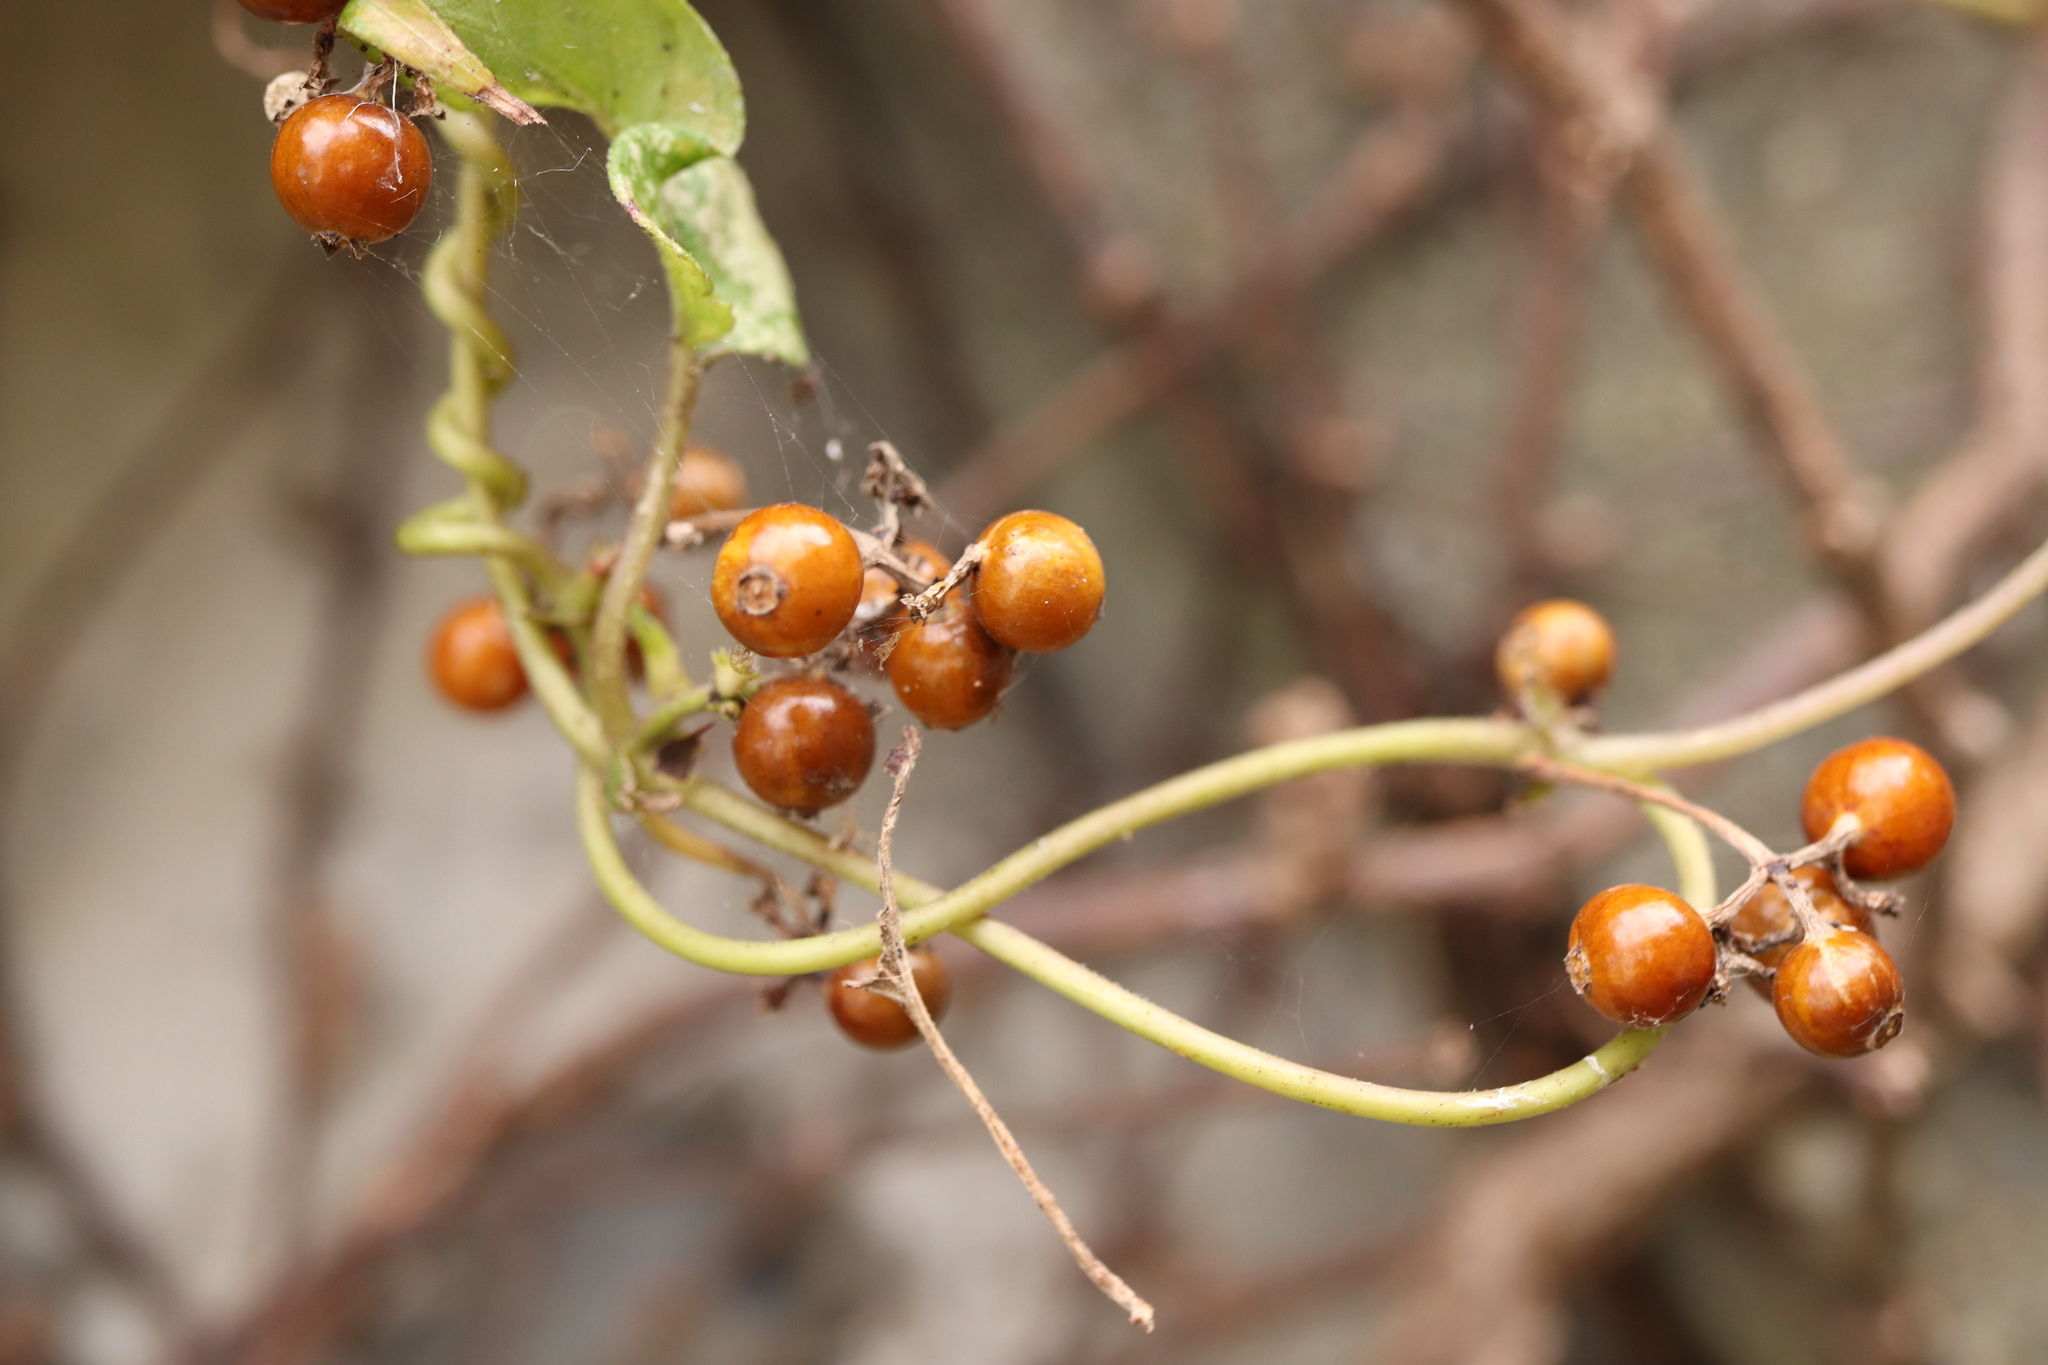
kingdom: Plantae
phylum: Tracheophyta
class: Magnoliopsida
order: Gentianales
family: Rubiaceae
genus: Paederia
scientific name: Paederia foetida
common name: Stinkvine
